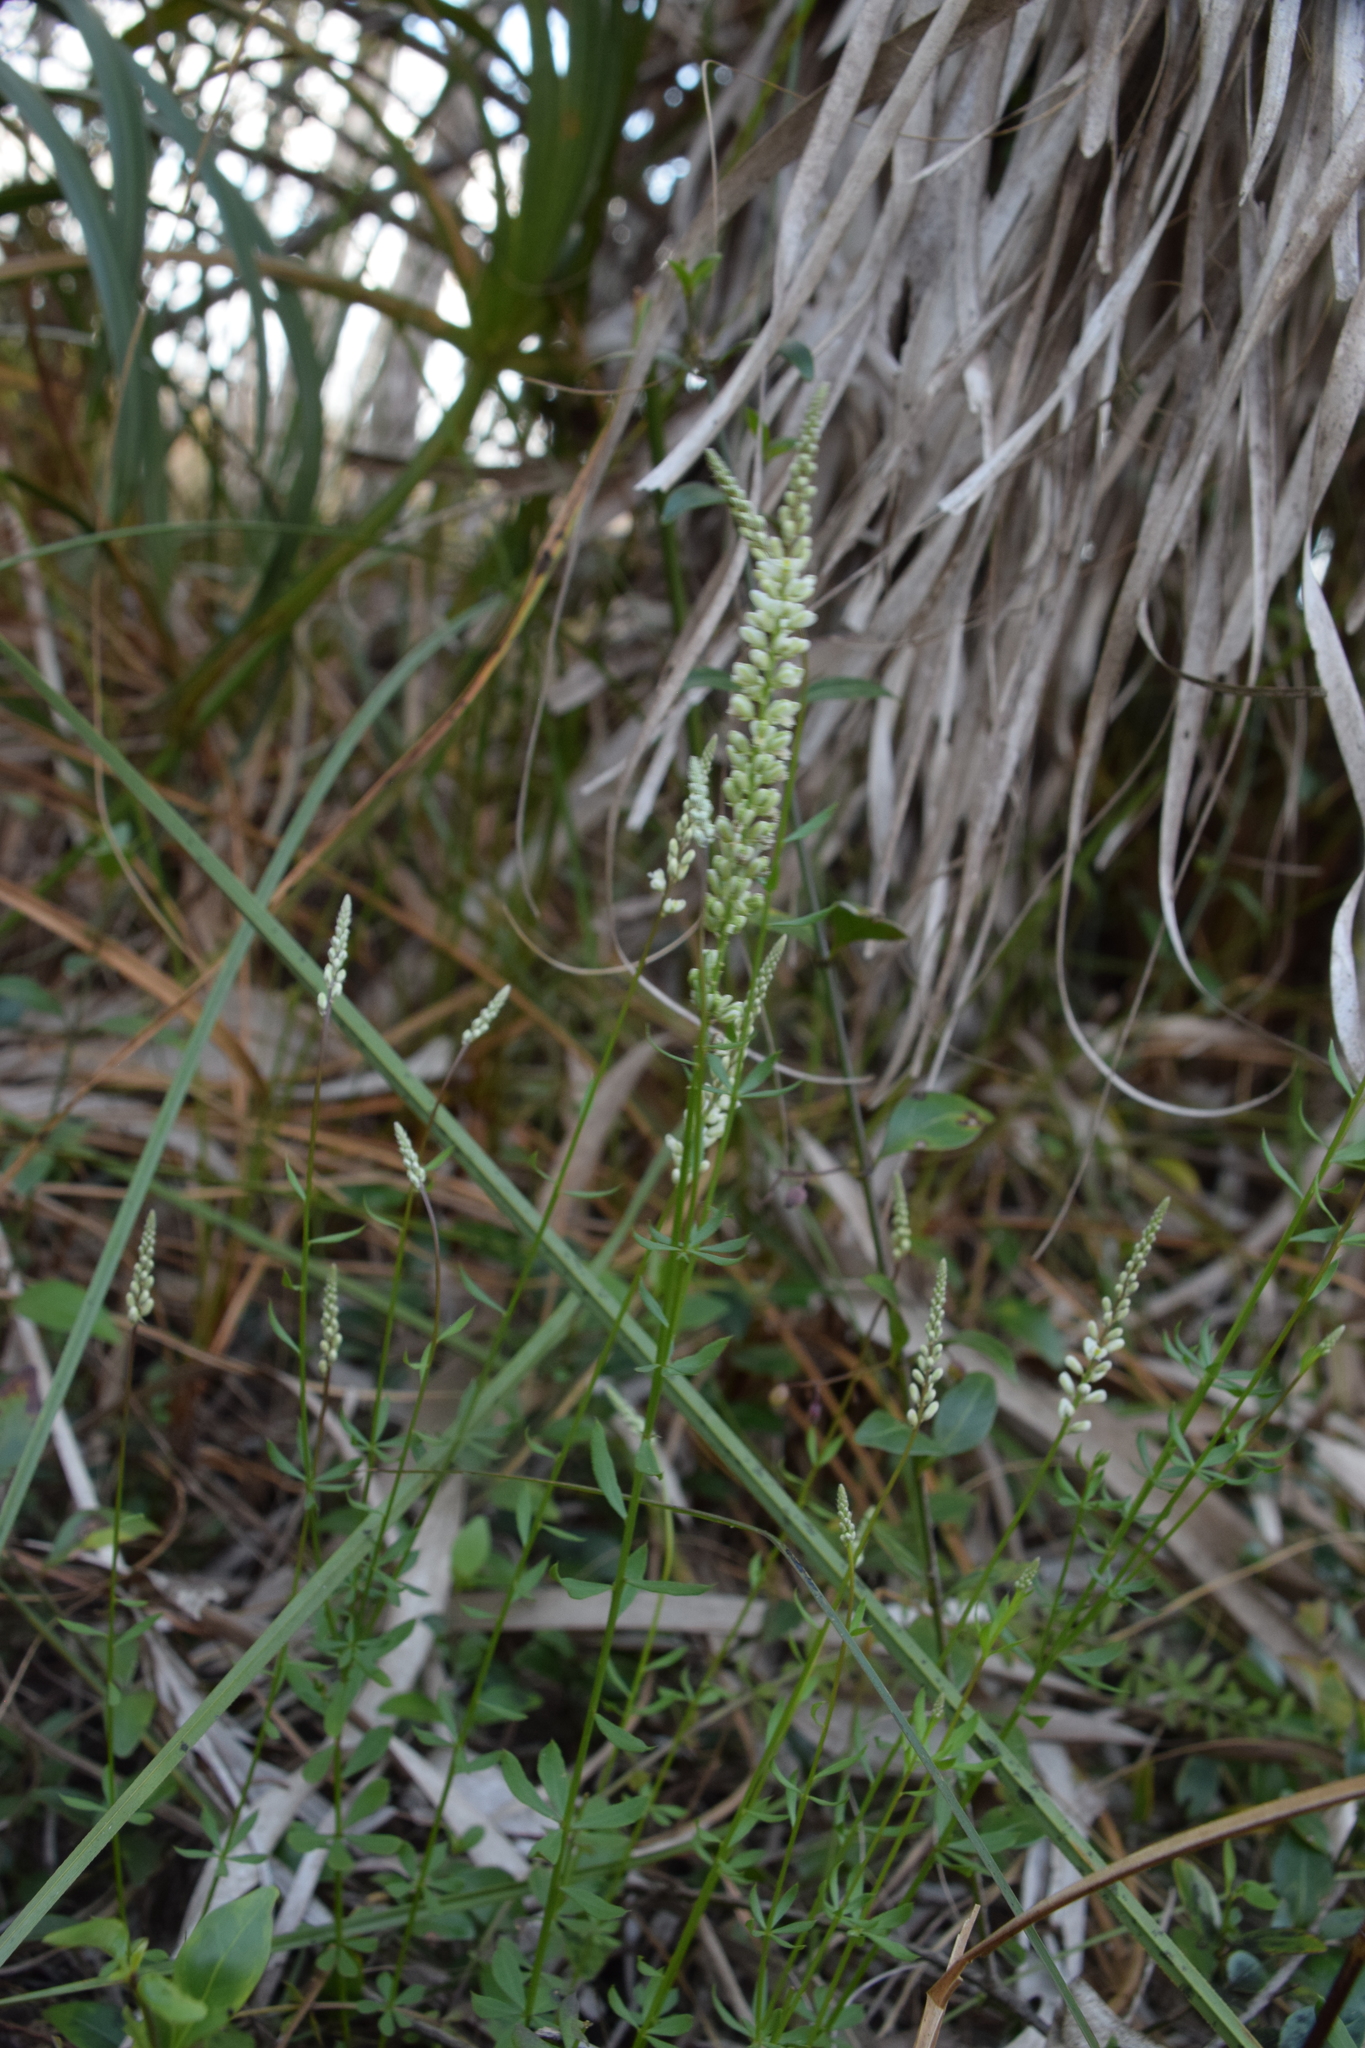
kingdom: Plantae
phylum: Tracheophyta
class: Magnoliopsida
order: Fabales
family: Polygalaceae
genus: Polygala
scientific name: Polygala boykinii
